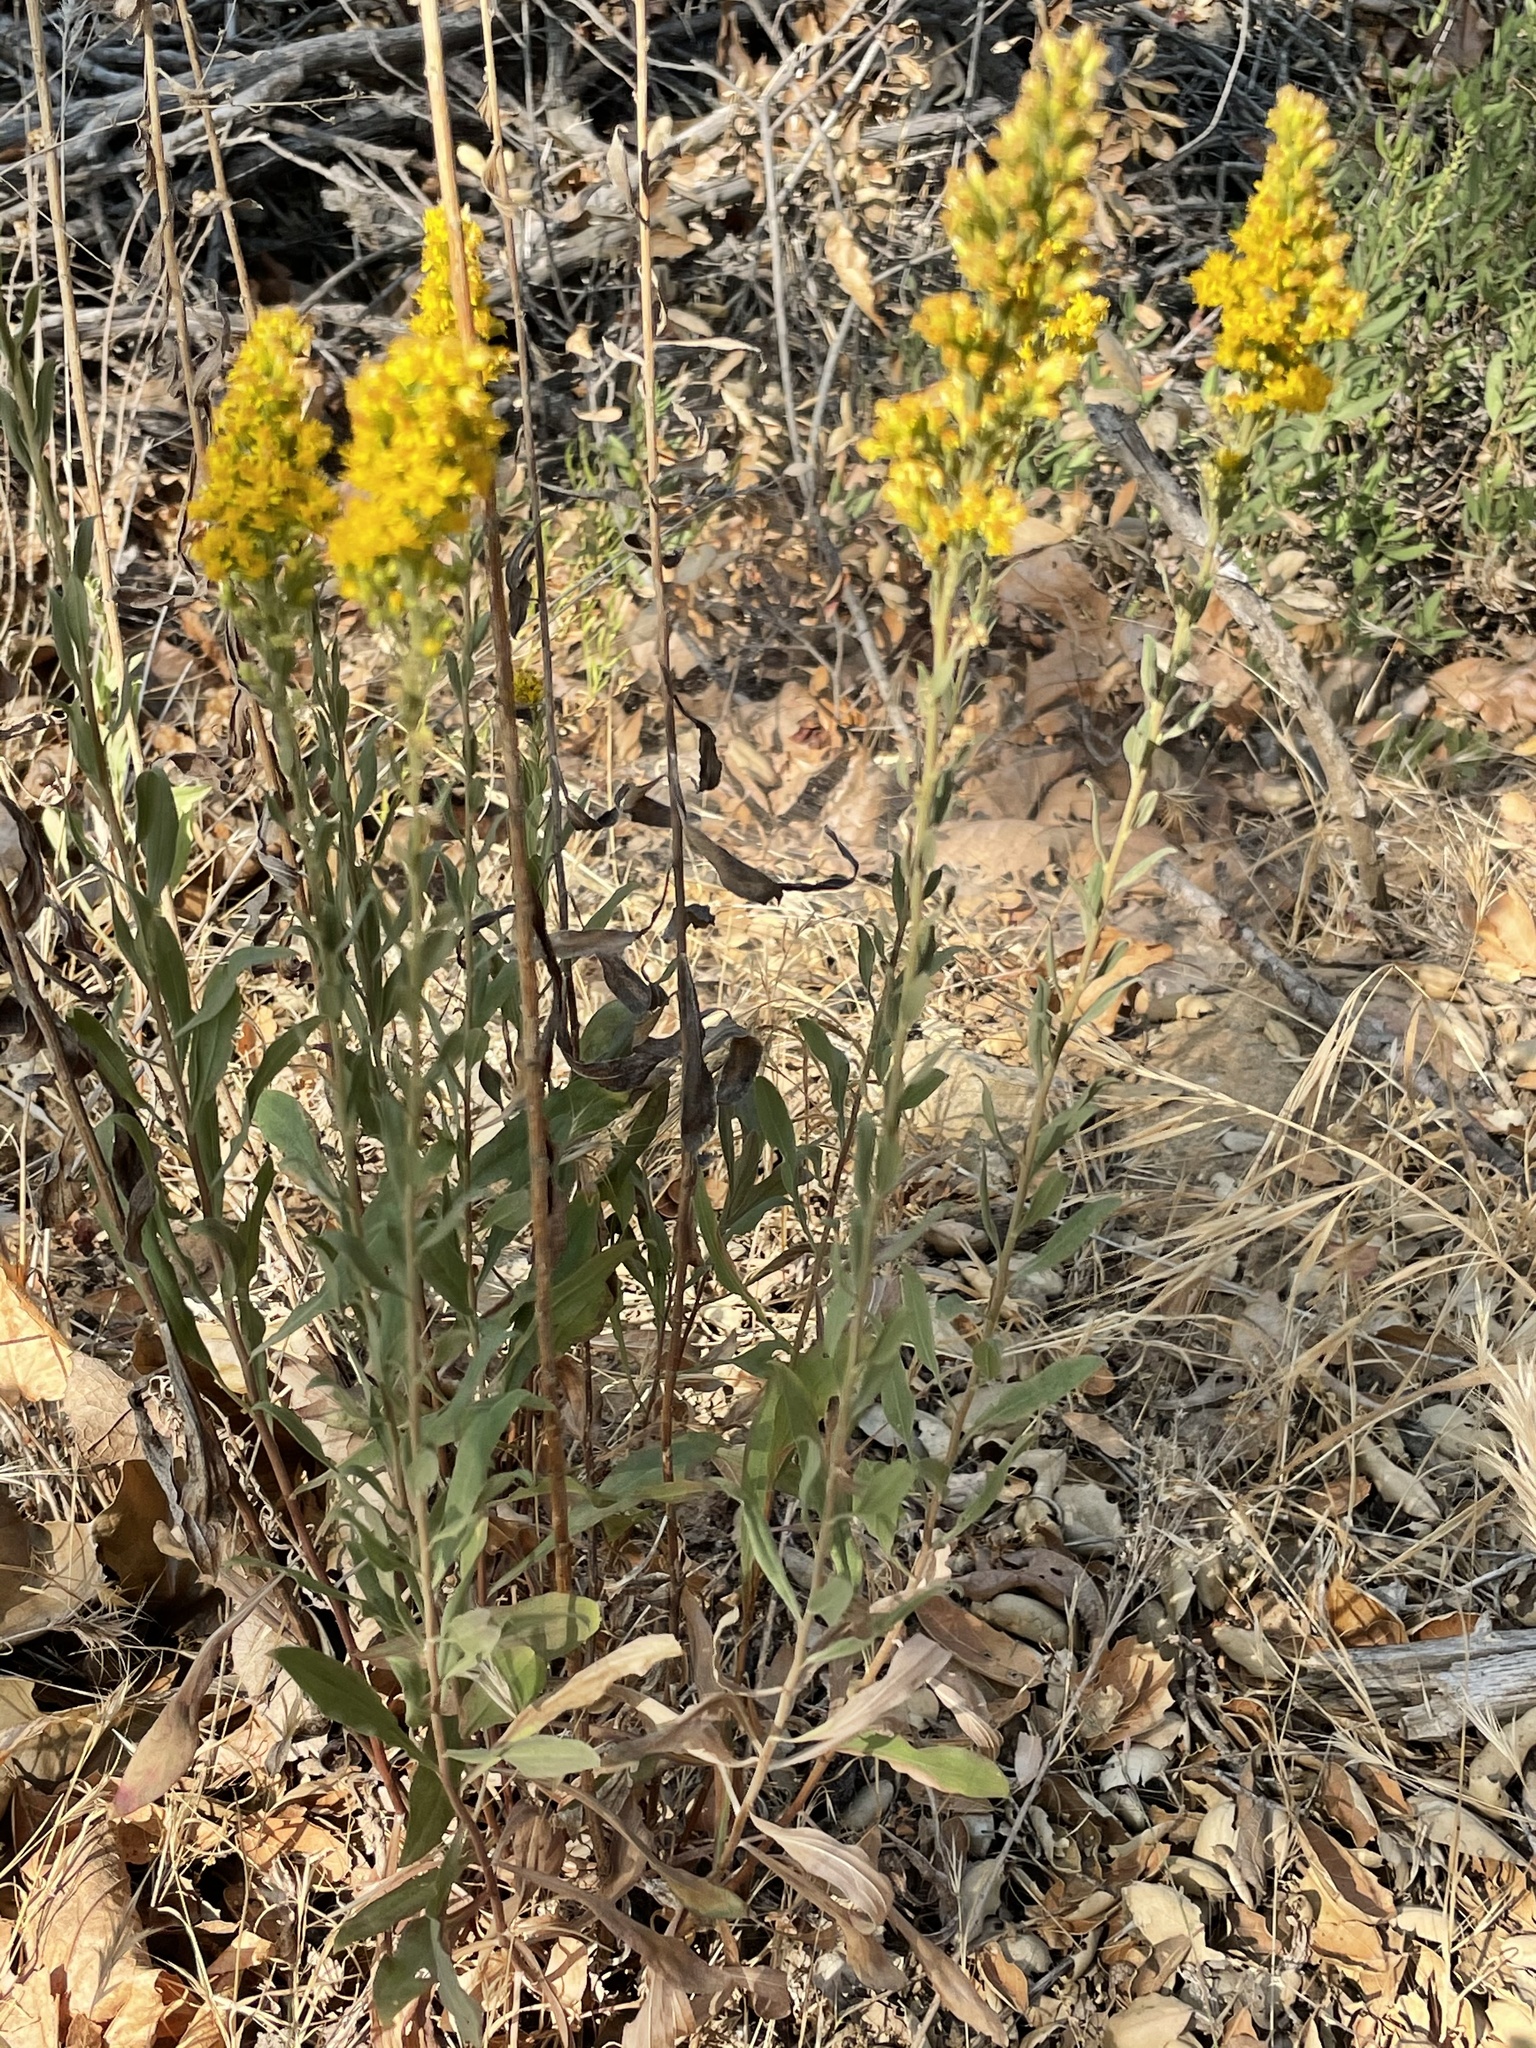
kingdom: Plantae
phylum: Tracheophyta
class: Magnoliopsida
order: Asterales
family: Asteraceae
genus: Solidago
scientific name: Solidago californica
